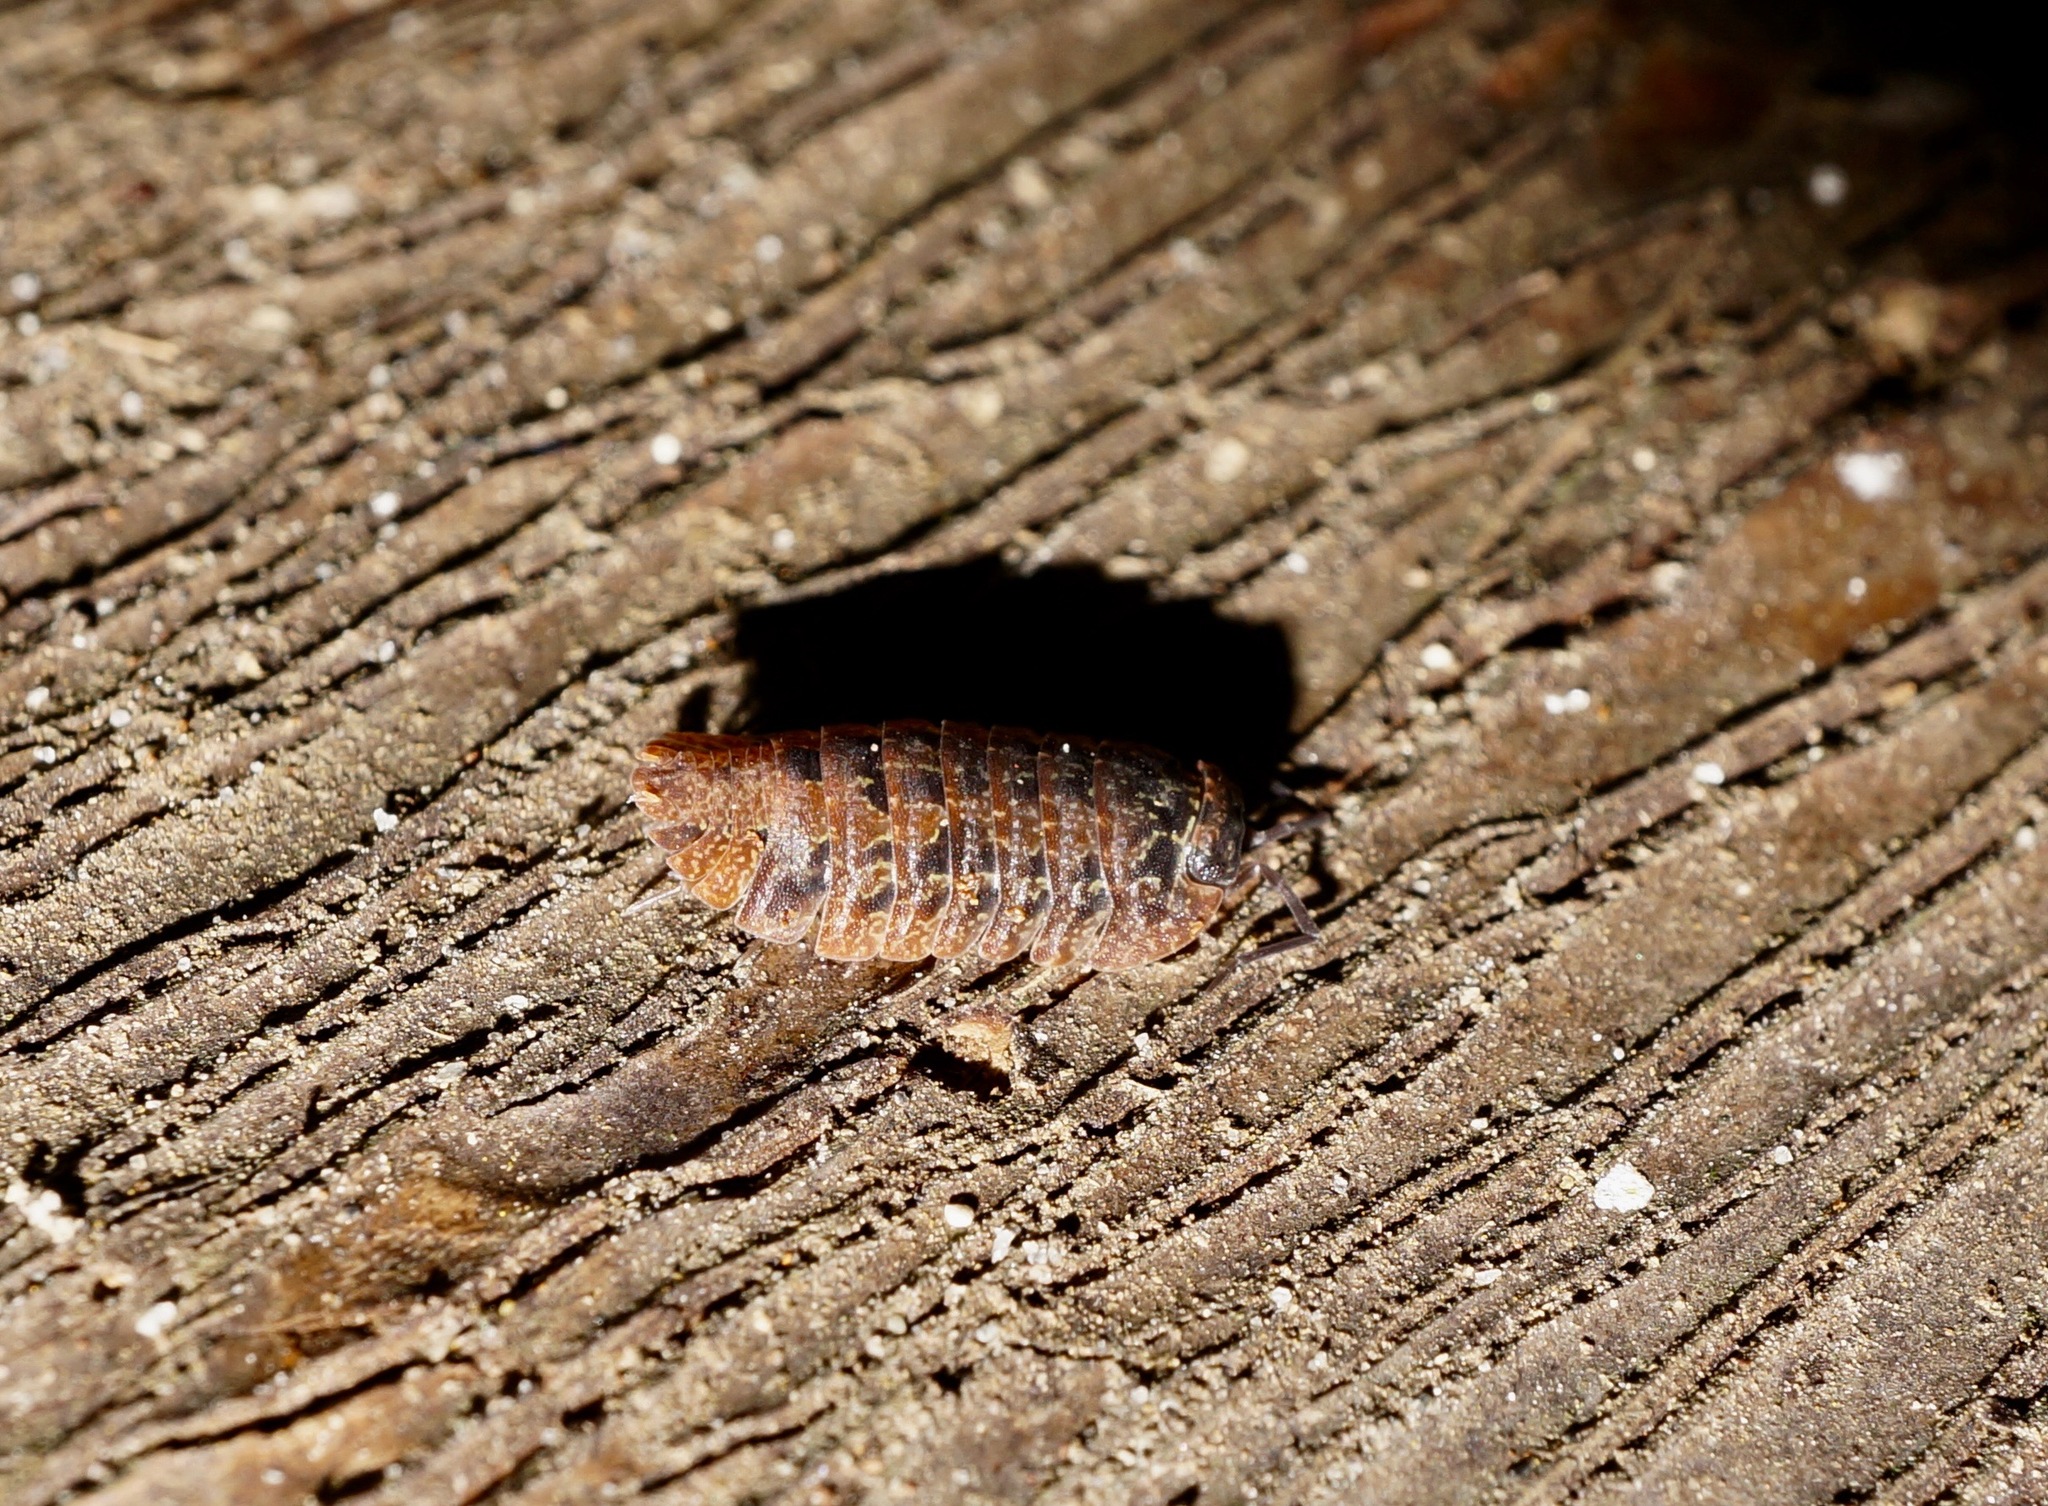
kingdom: Animalia
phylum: Arthropoda
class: Malacostraca
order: Isopoda
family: Armadillidae
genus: Cubaris
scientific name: Cubaris tarangensis
